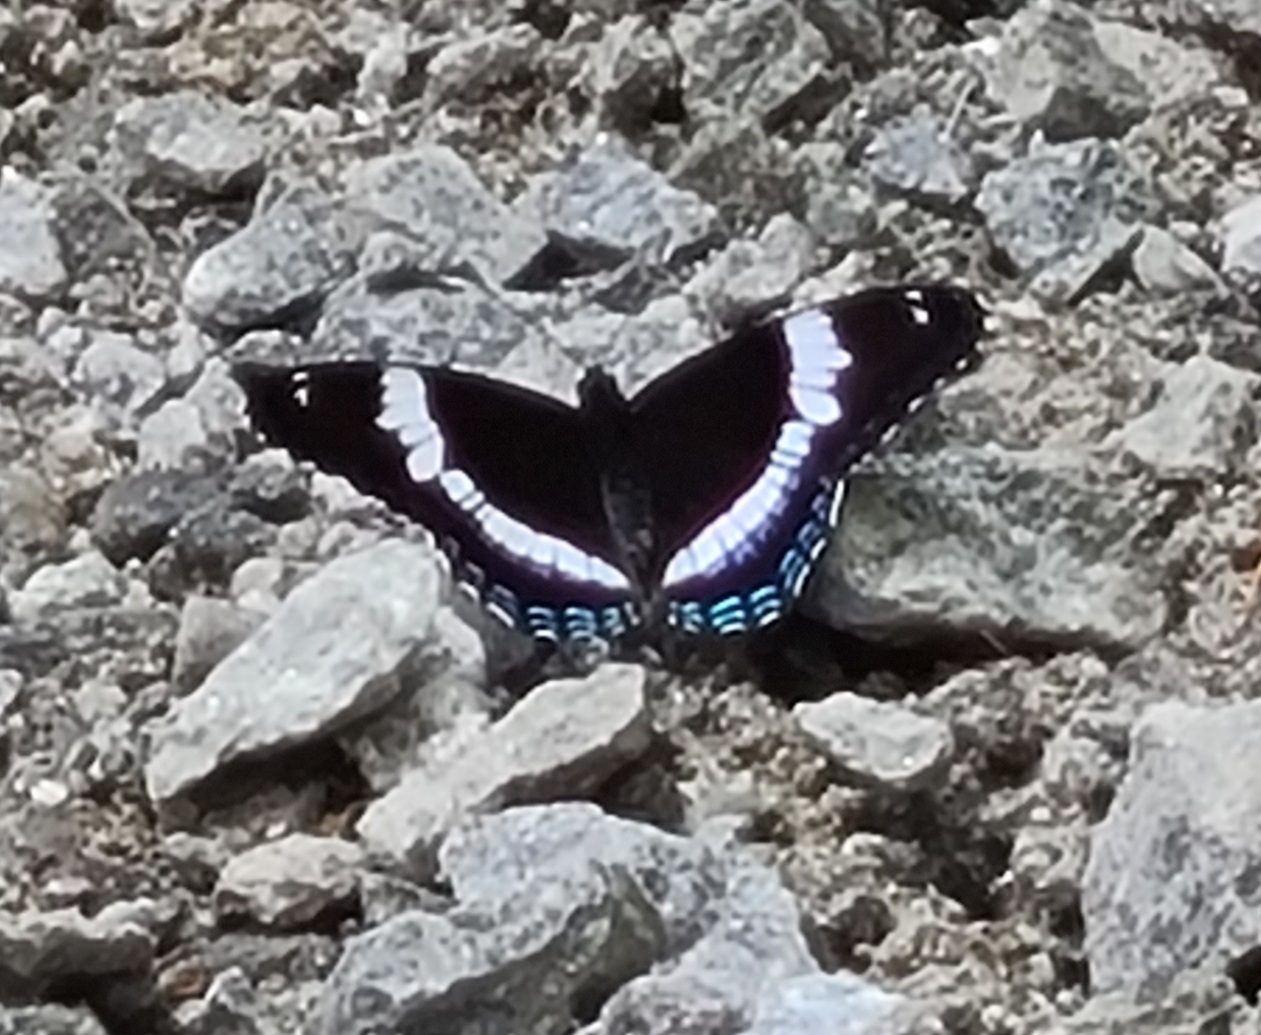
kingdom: Animalia
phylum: Arthropoda
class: Insecta
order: Lepidoptera
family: Nymphalidae
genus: Limenitis
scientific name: Limenitis arthemis
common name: Red-spotted admiral
